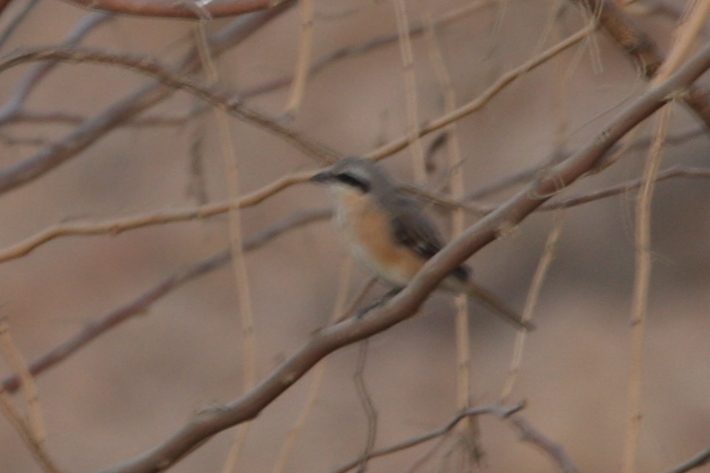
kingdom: Animalia
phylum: Chordata
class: Aves
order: Passeriformes
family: Laniidae
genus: Lanius
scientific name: Lanius cristatus
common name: Brown shrike
